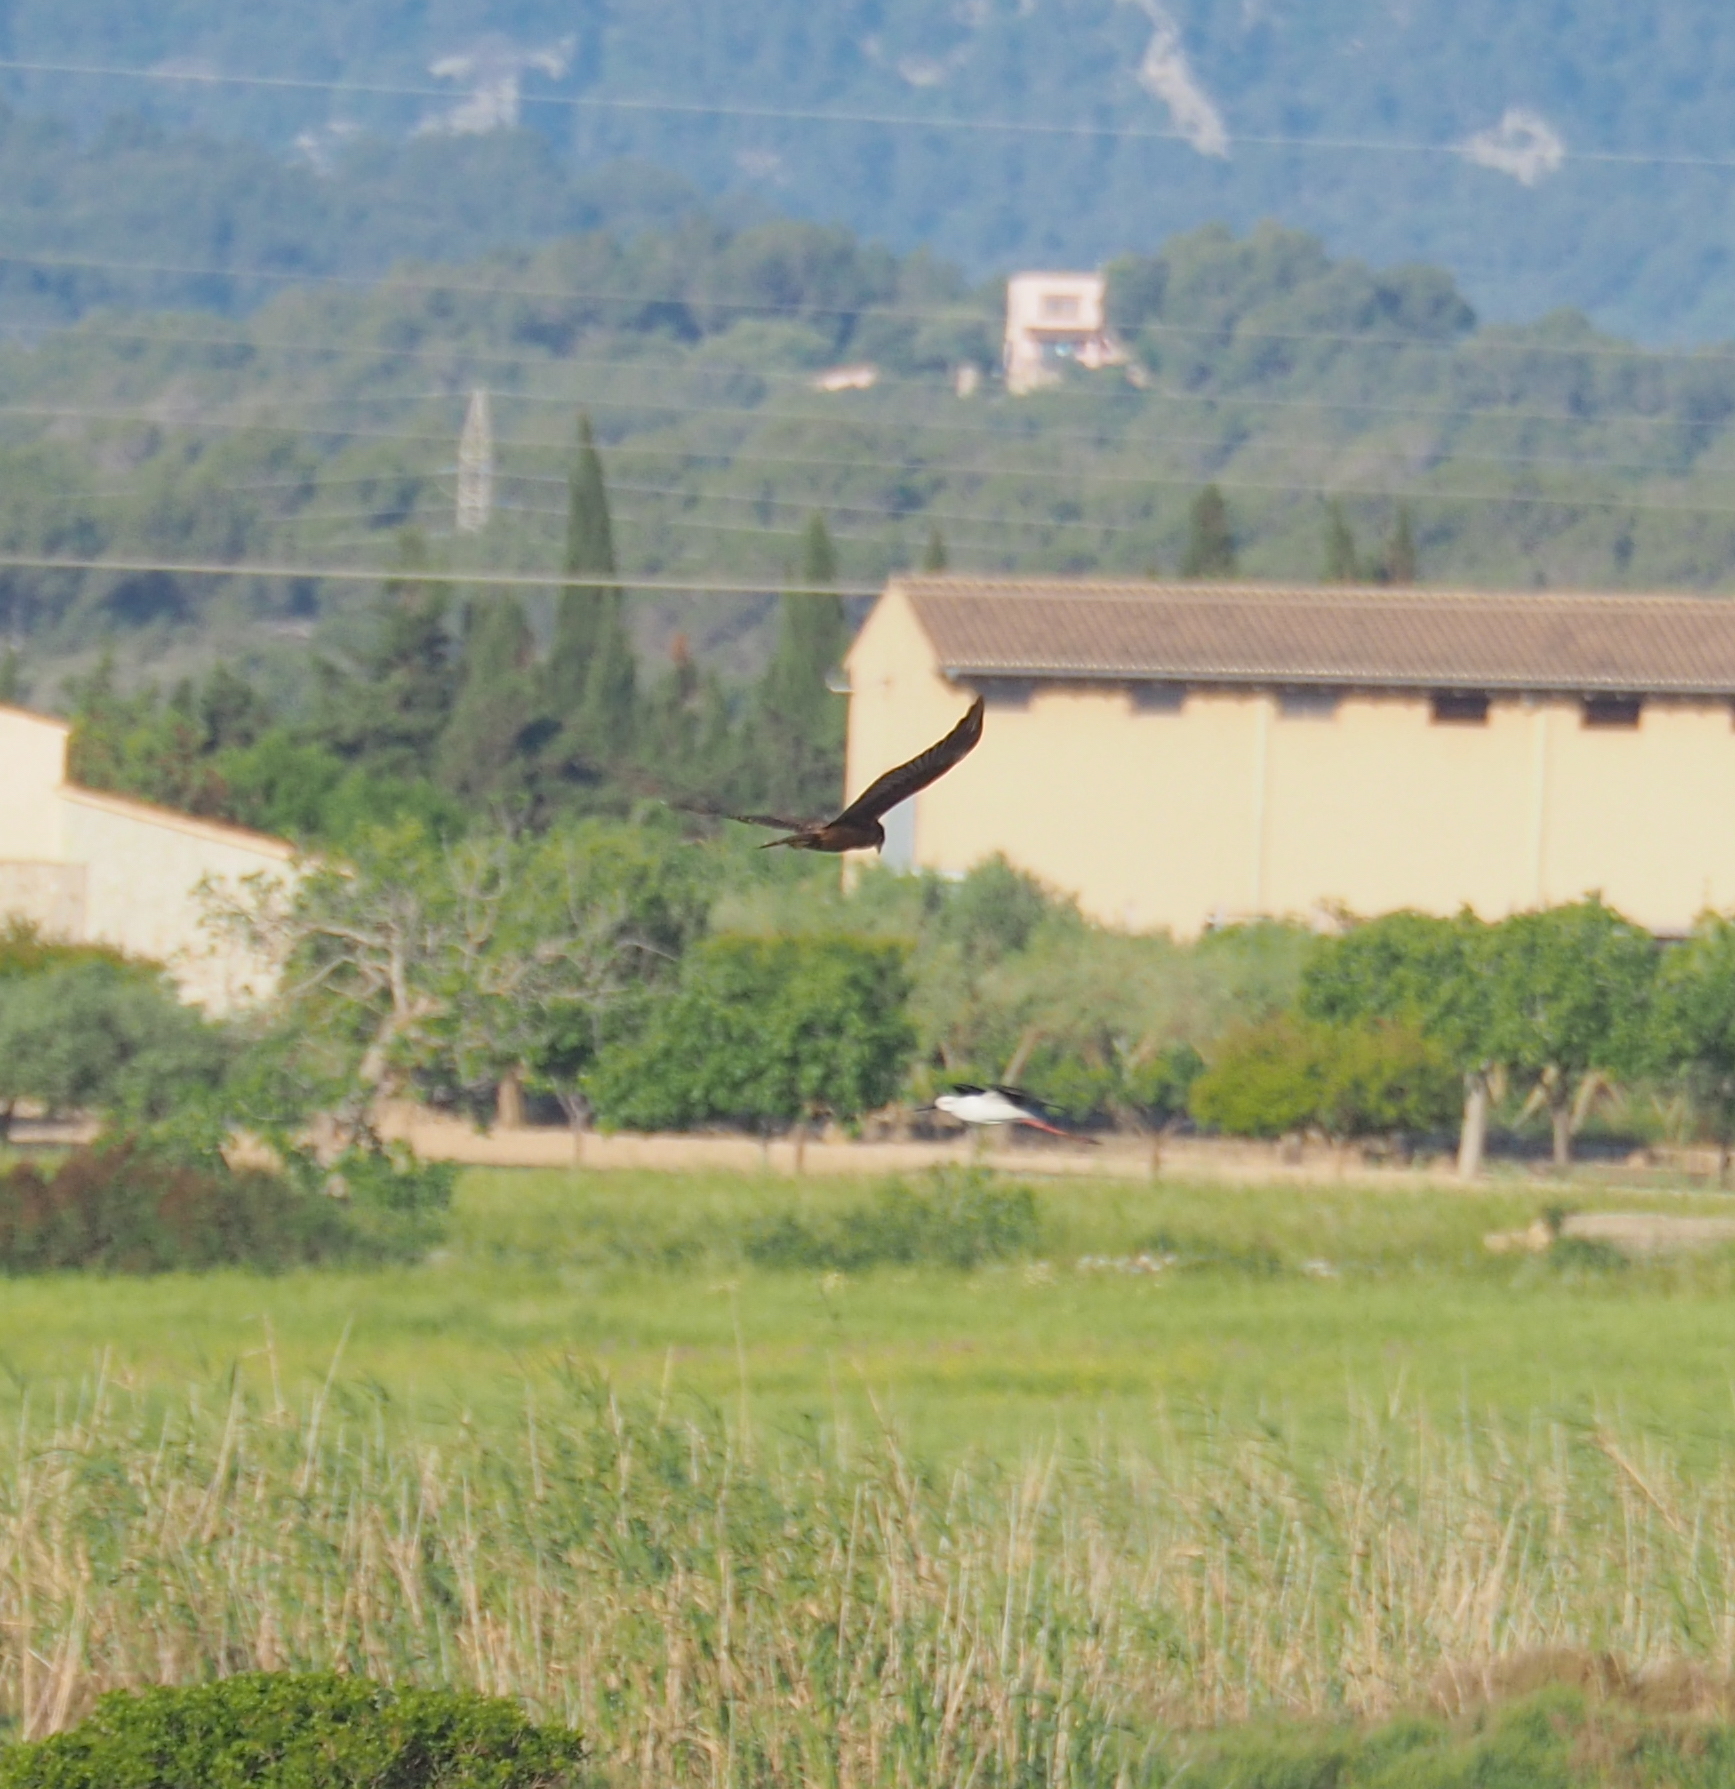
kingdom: Animalia
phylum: Chordata
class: Aves
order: Accipitriformes
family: Accipitridae
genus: Circus
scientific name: Circus aeruginosus
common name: Western marsh harrier
